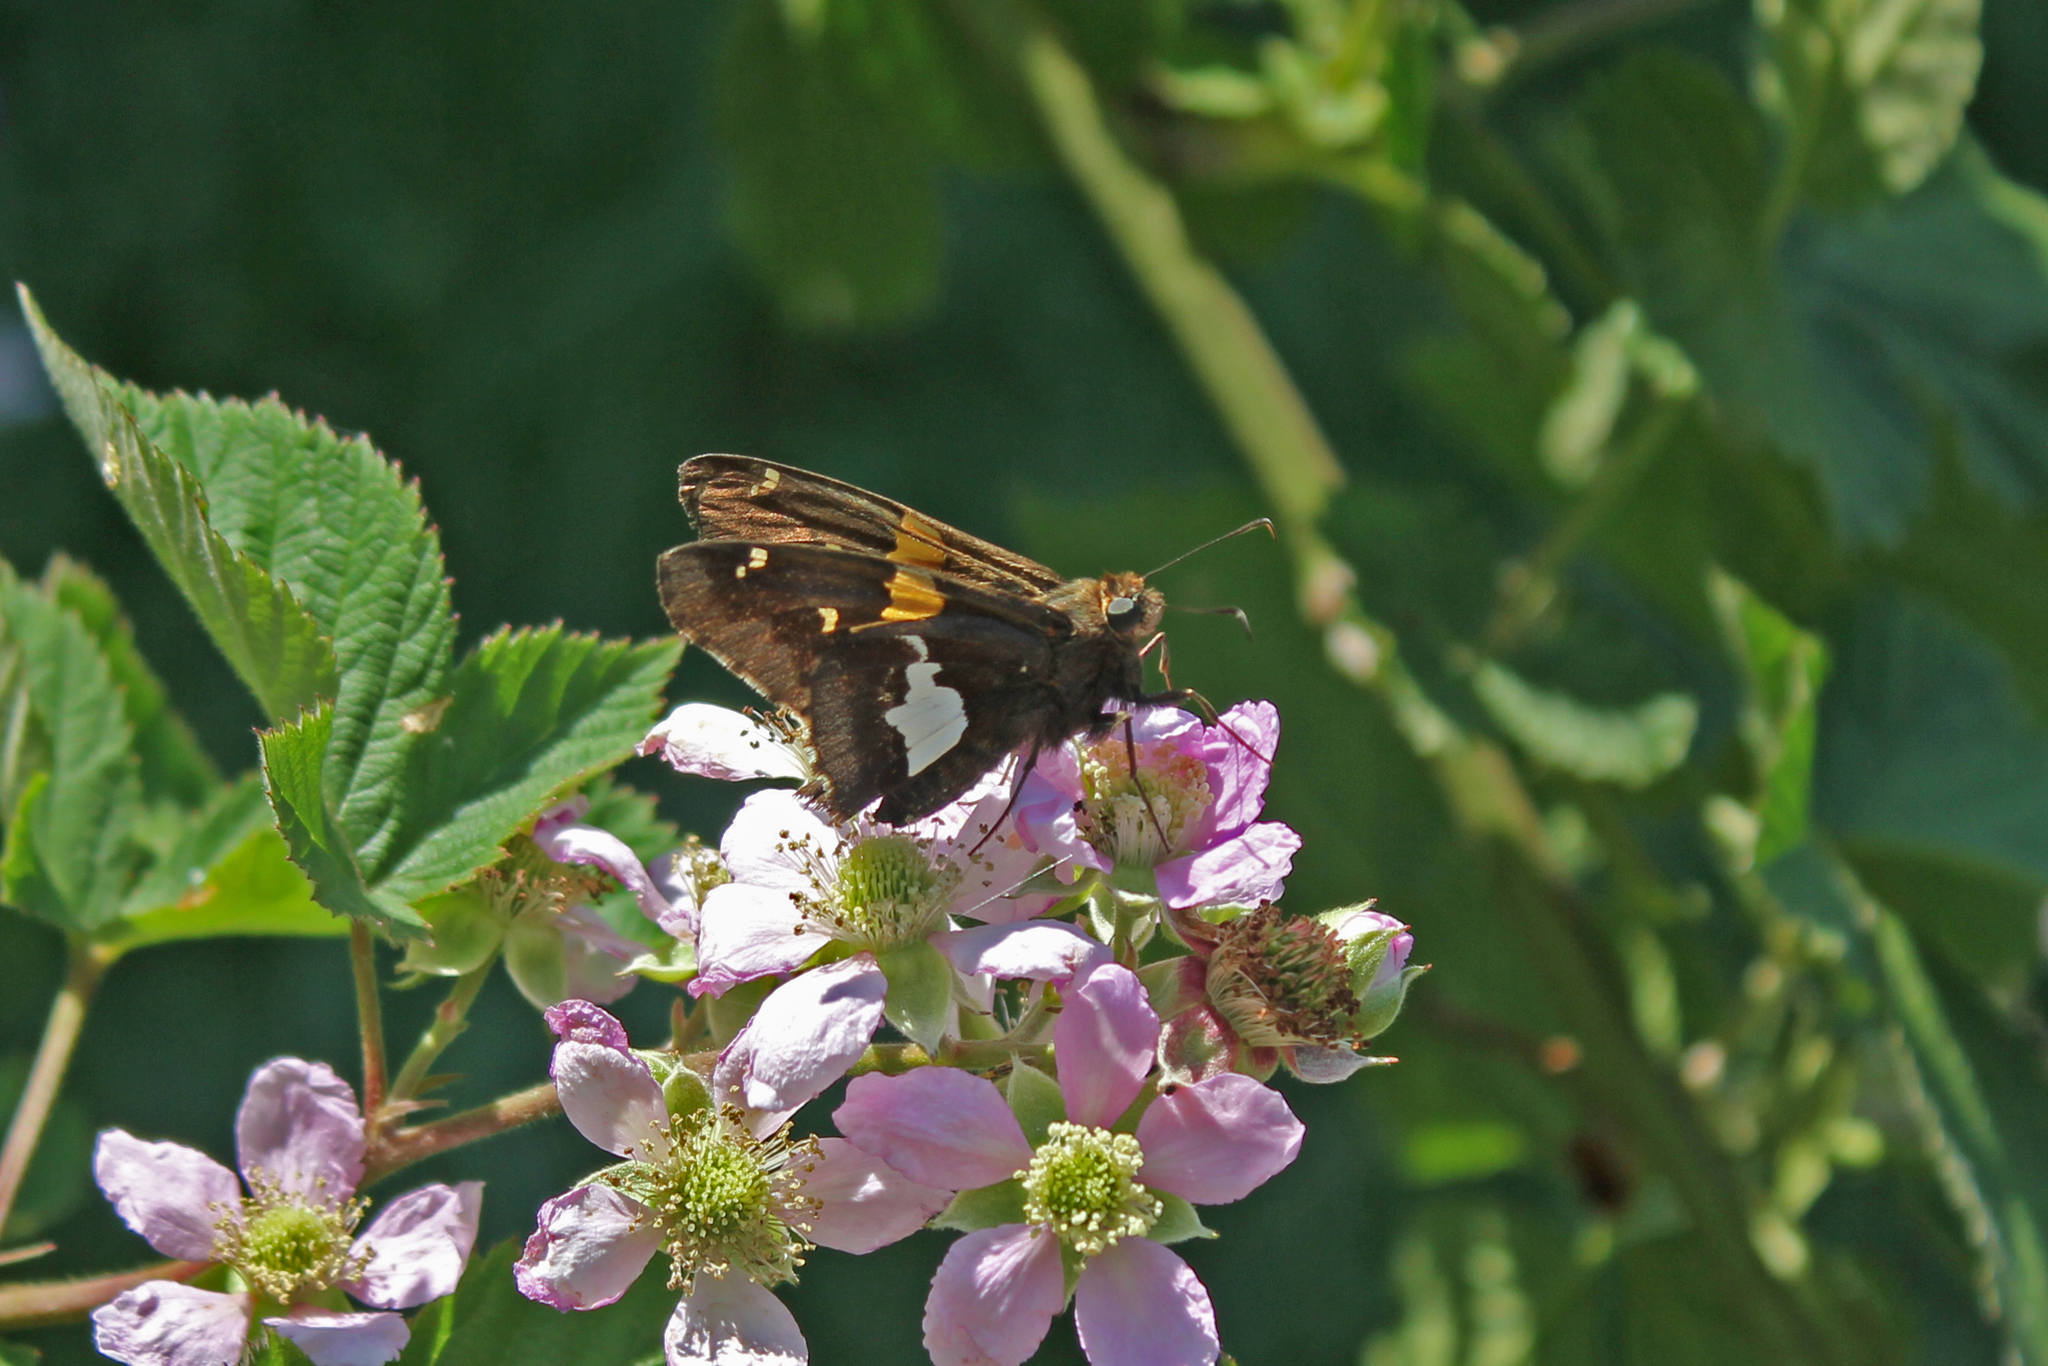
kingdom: Animalia
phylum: Arthropoda
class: Insecta
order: Lepidoptera
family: Hesperiidae
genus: Epargyreus
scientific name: Epargyreus clarus
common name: Silver-spotted skipper
